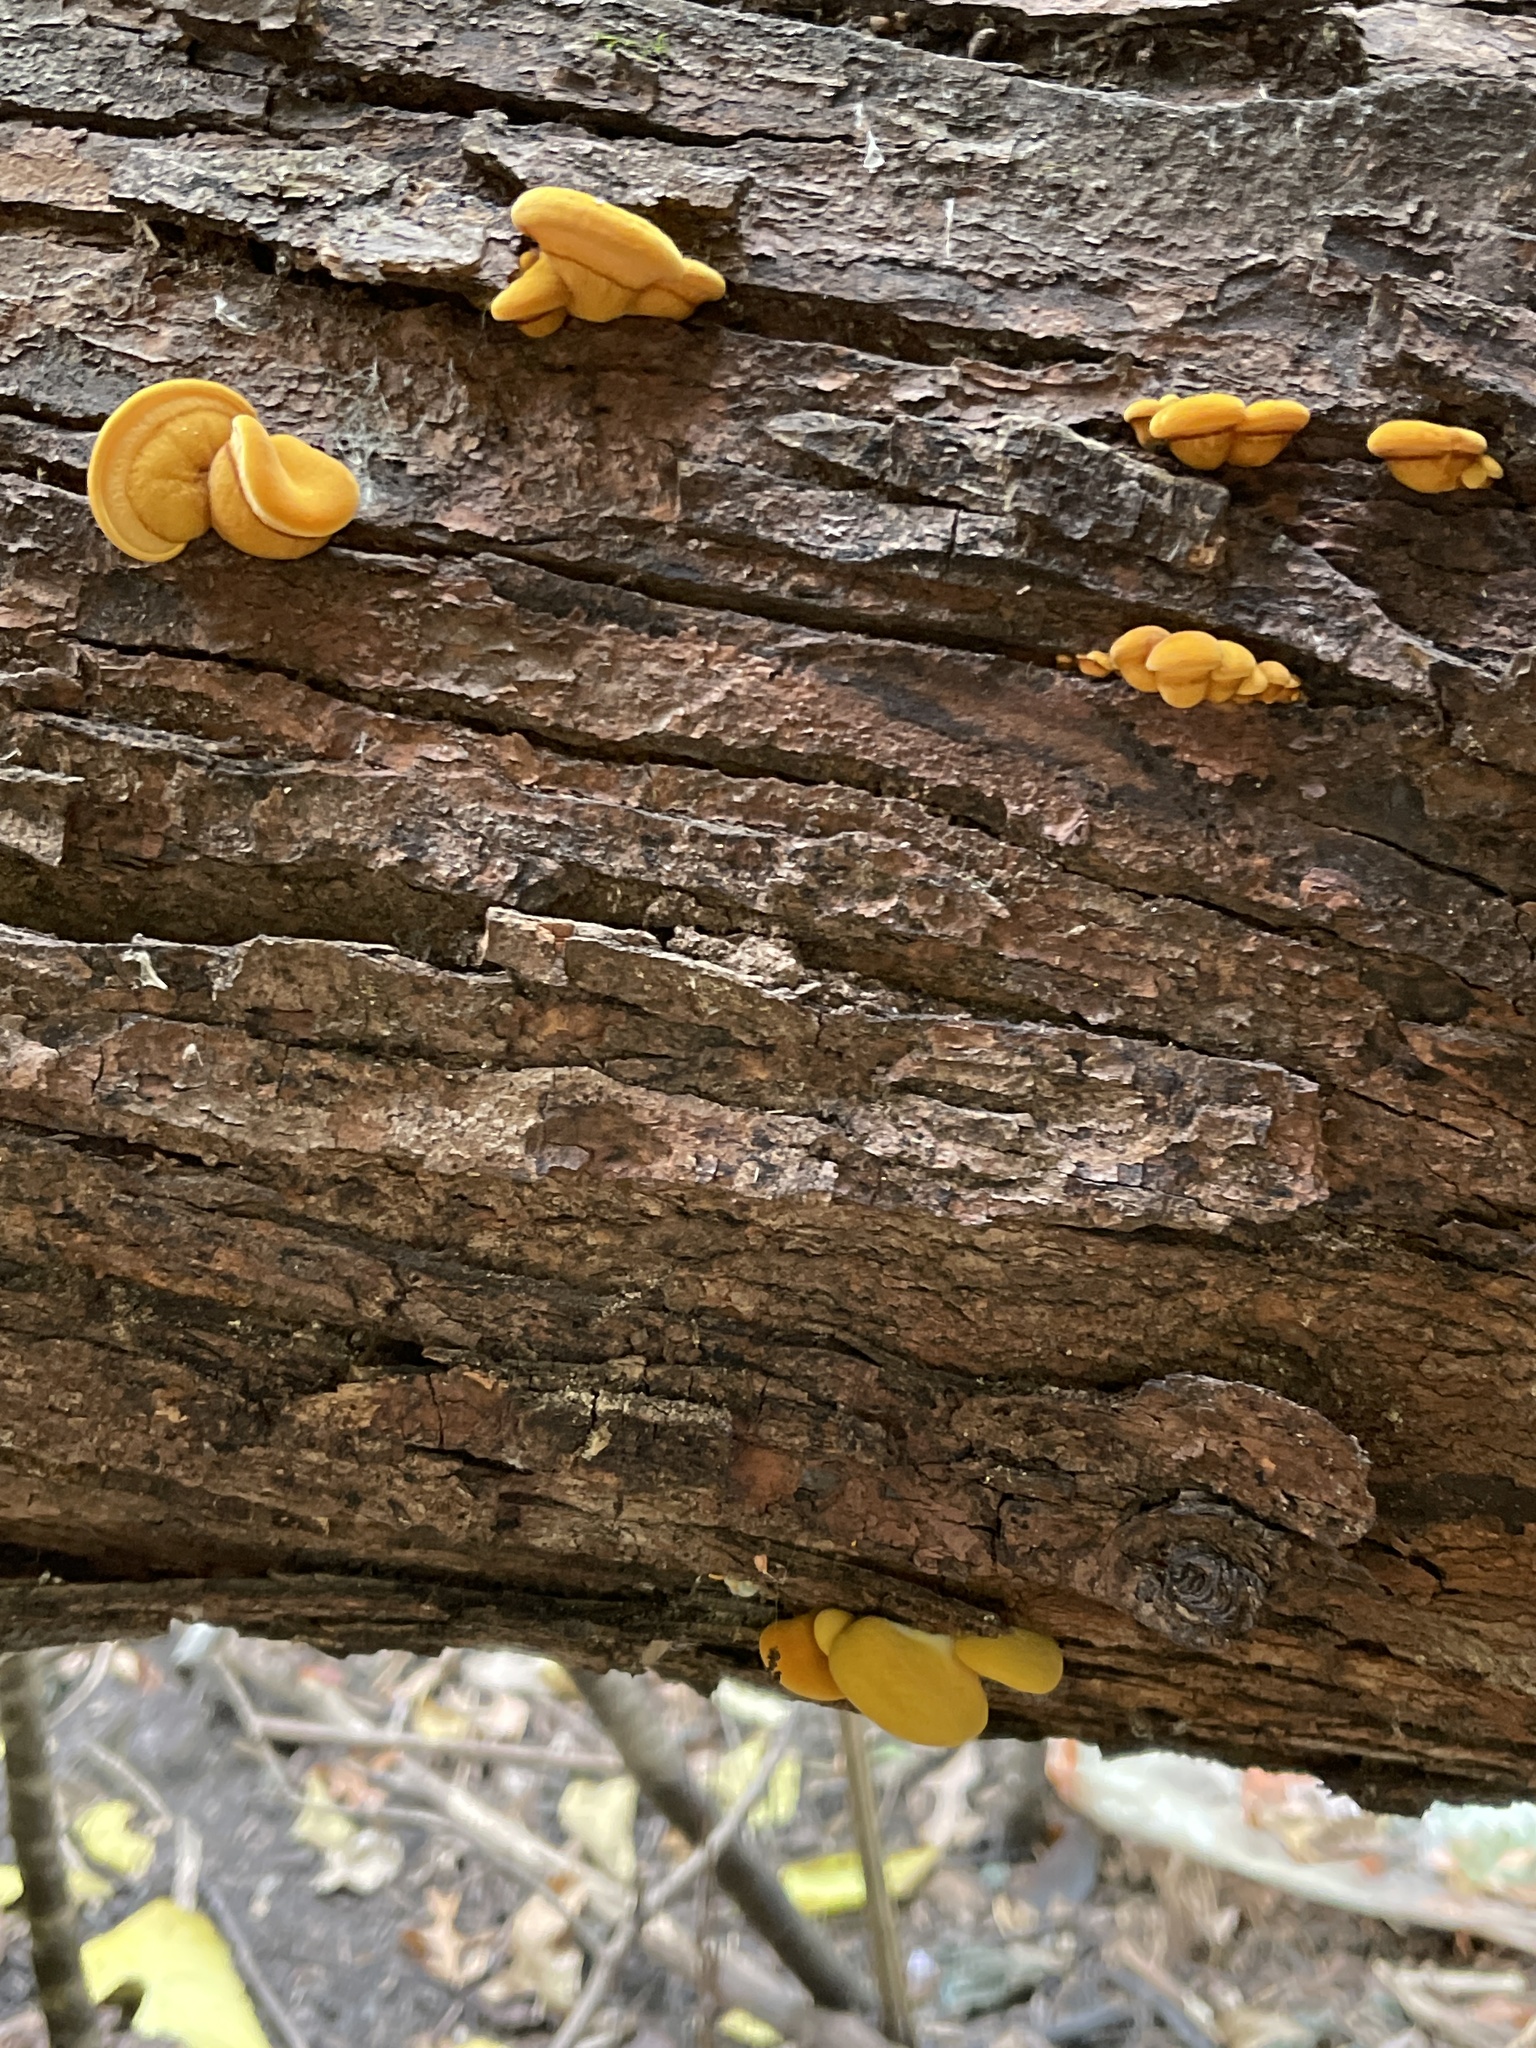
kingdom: Fungi
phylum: Basidiomycota
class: Agaricomycetes
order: Agaricales
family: Sarcomyxaceae
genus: Sarcomyxa
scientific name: Sarcomyxa serotina
